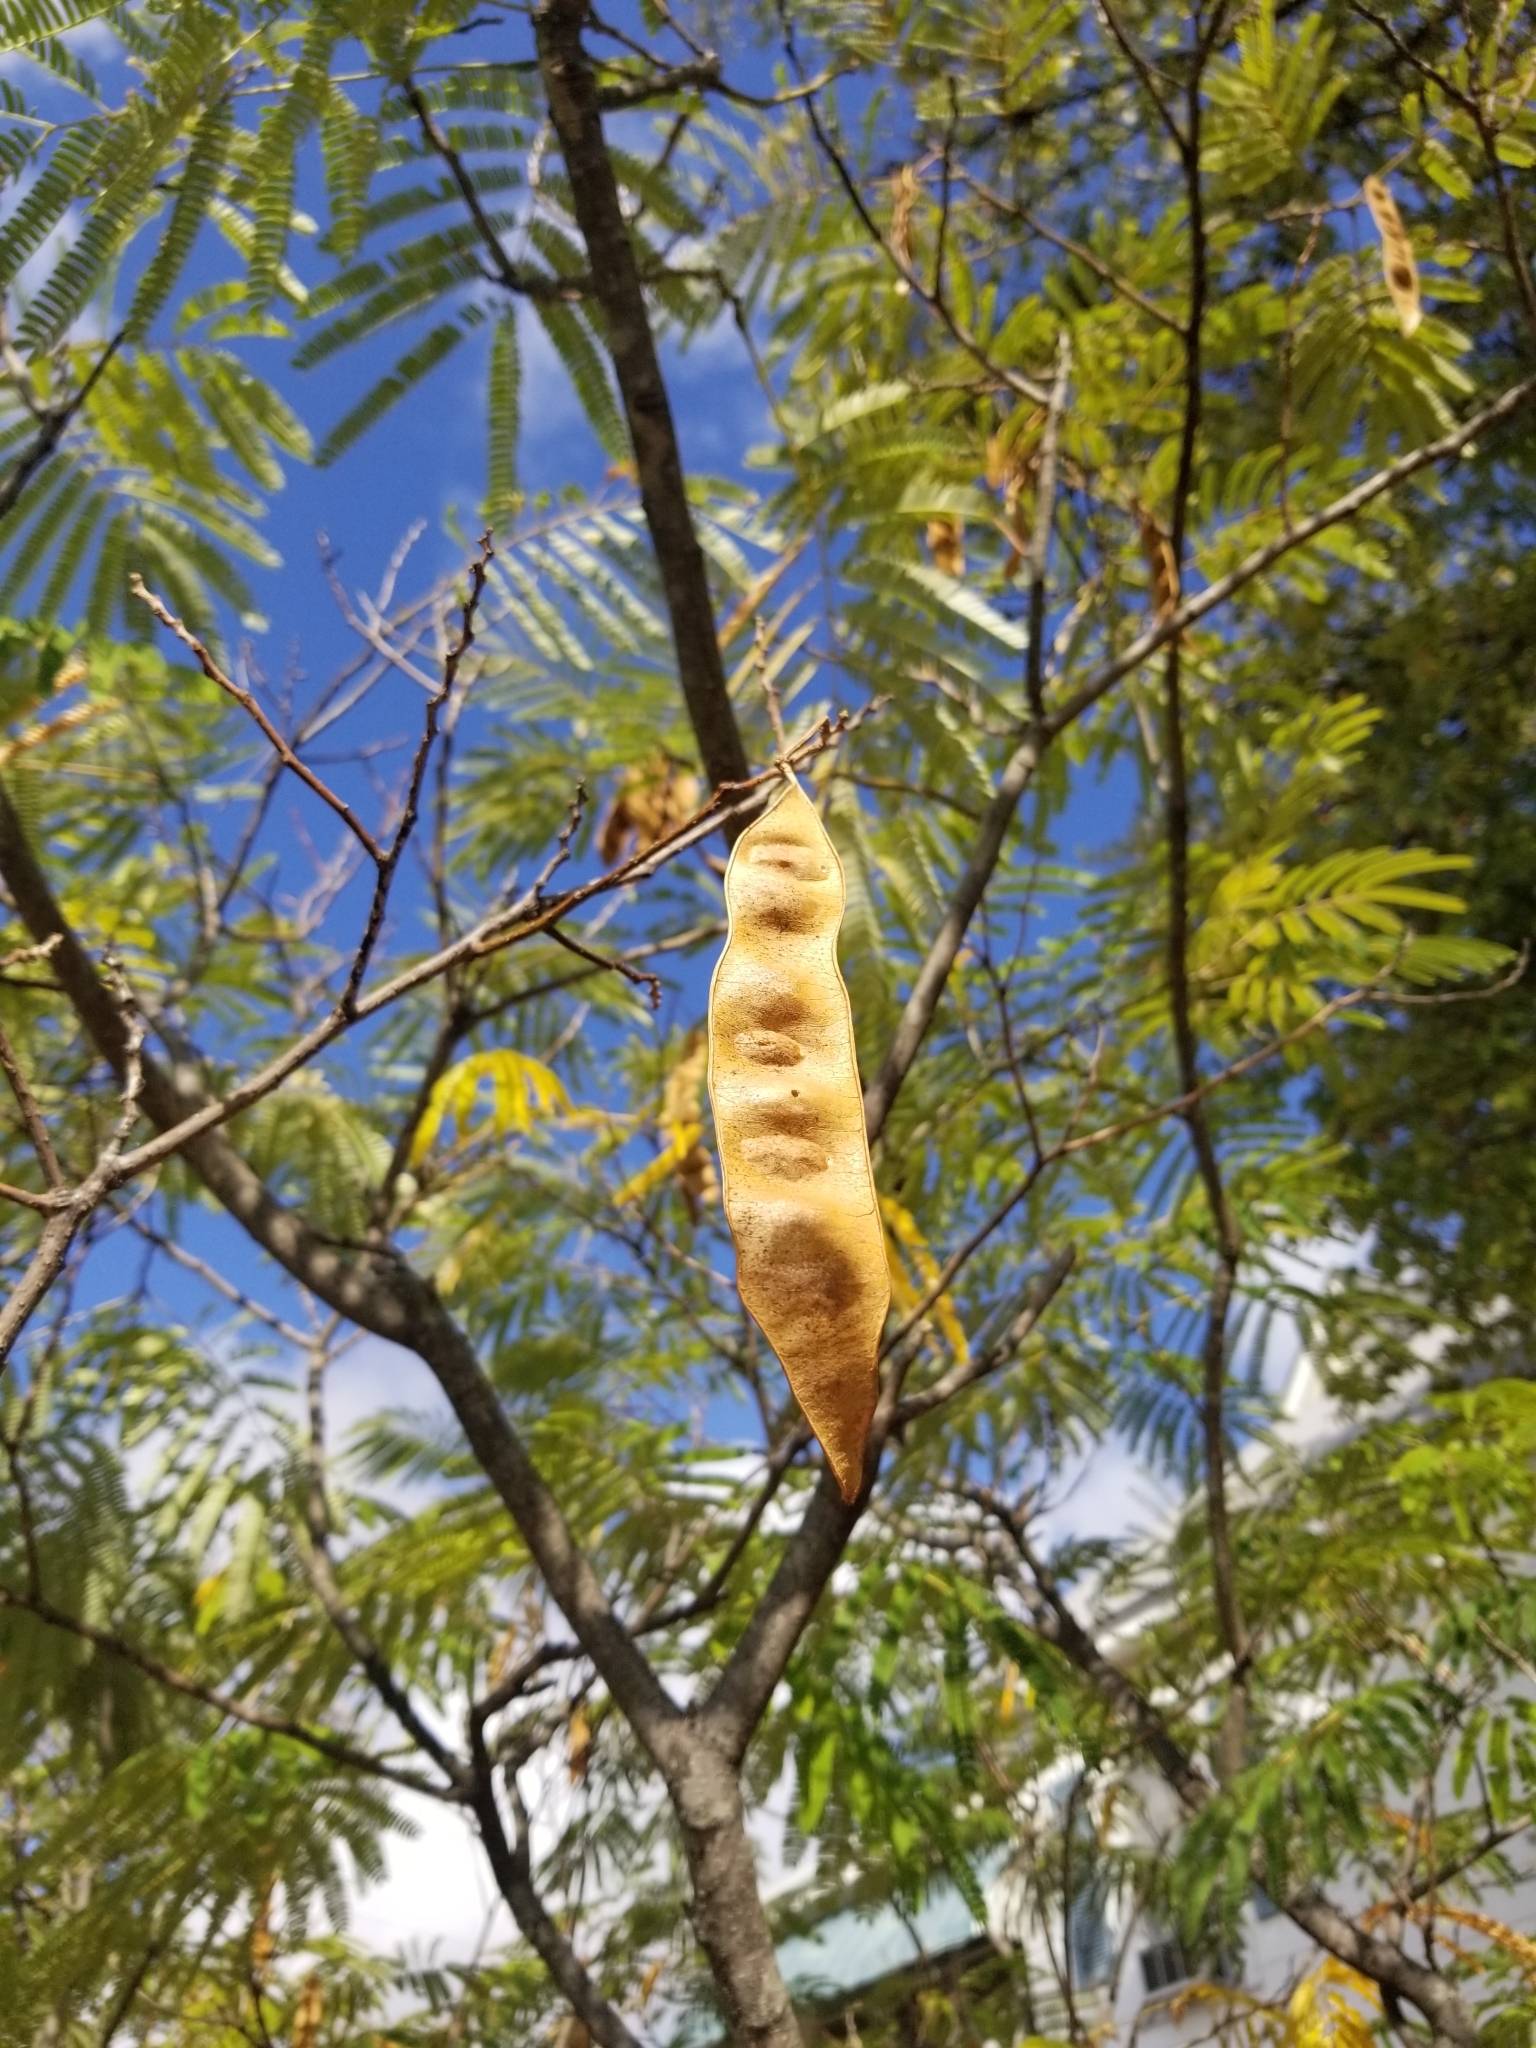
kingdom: Plantae
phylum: Tracheophyta
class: Magnoliopsida
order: Fabales
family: Fabaceae
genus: Albizia
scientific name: Albizia julibrissin
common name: Silktree
